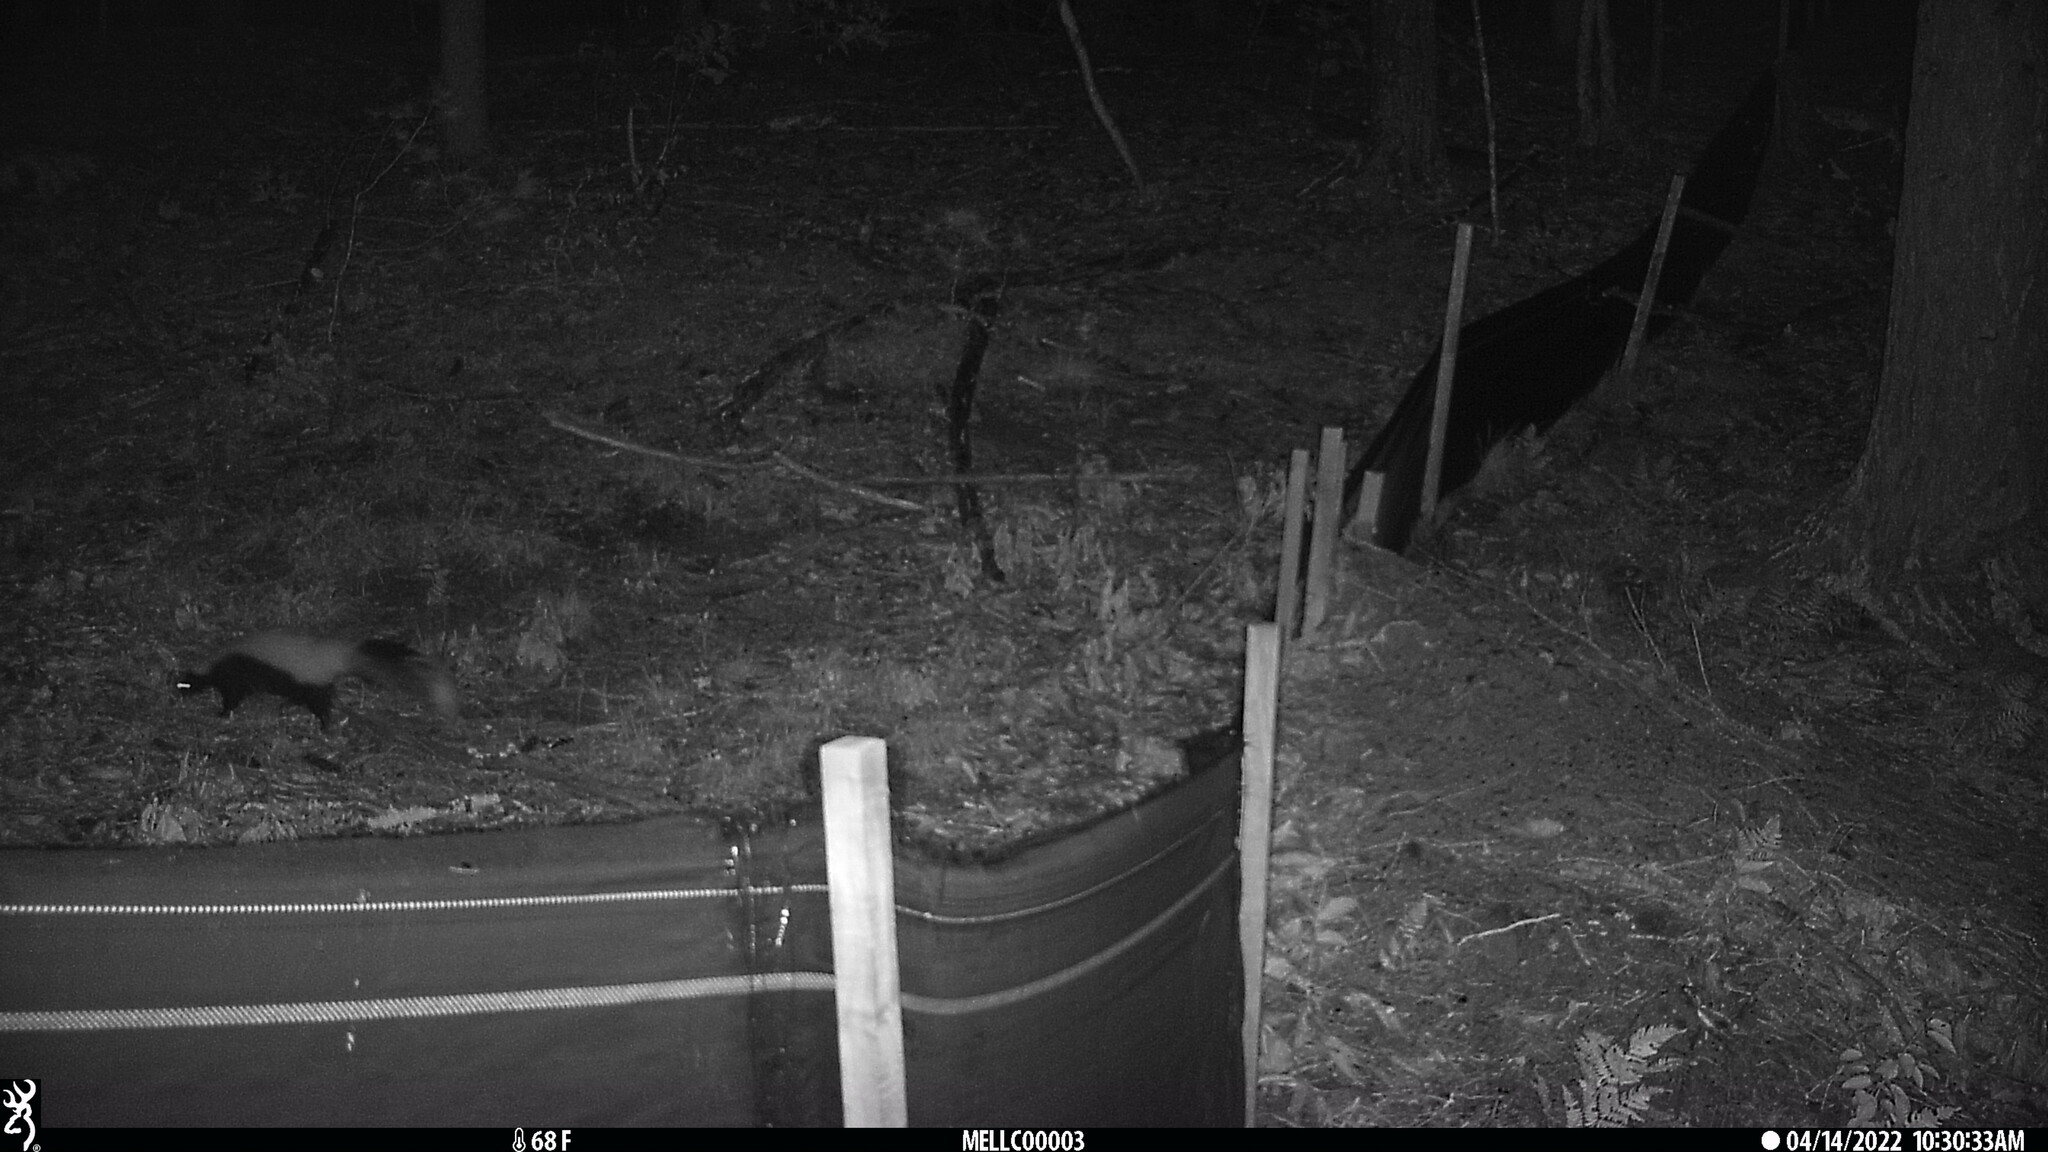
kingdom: Animalia
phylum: Chordata
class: Mammalia
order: Carnivora
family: Mephitidae
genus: Mephitis
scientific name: Mephitis mephitis
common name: Striped skunk
